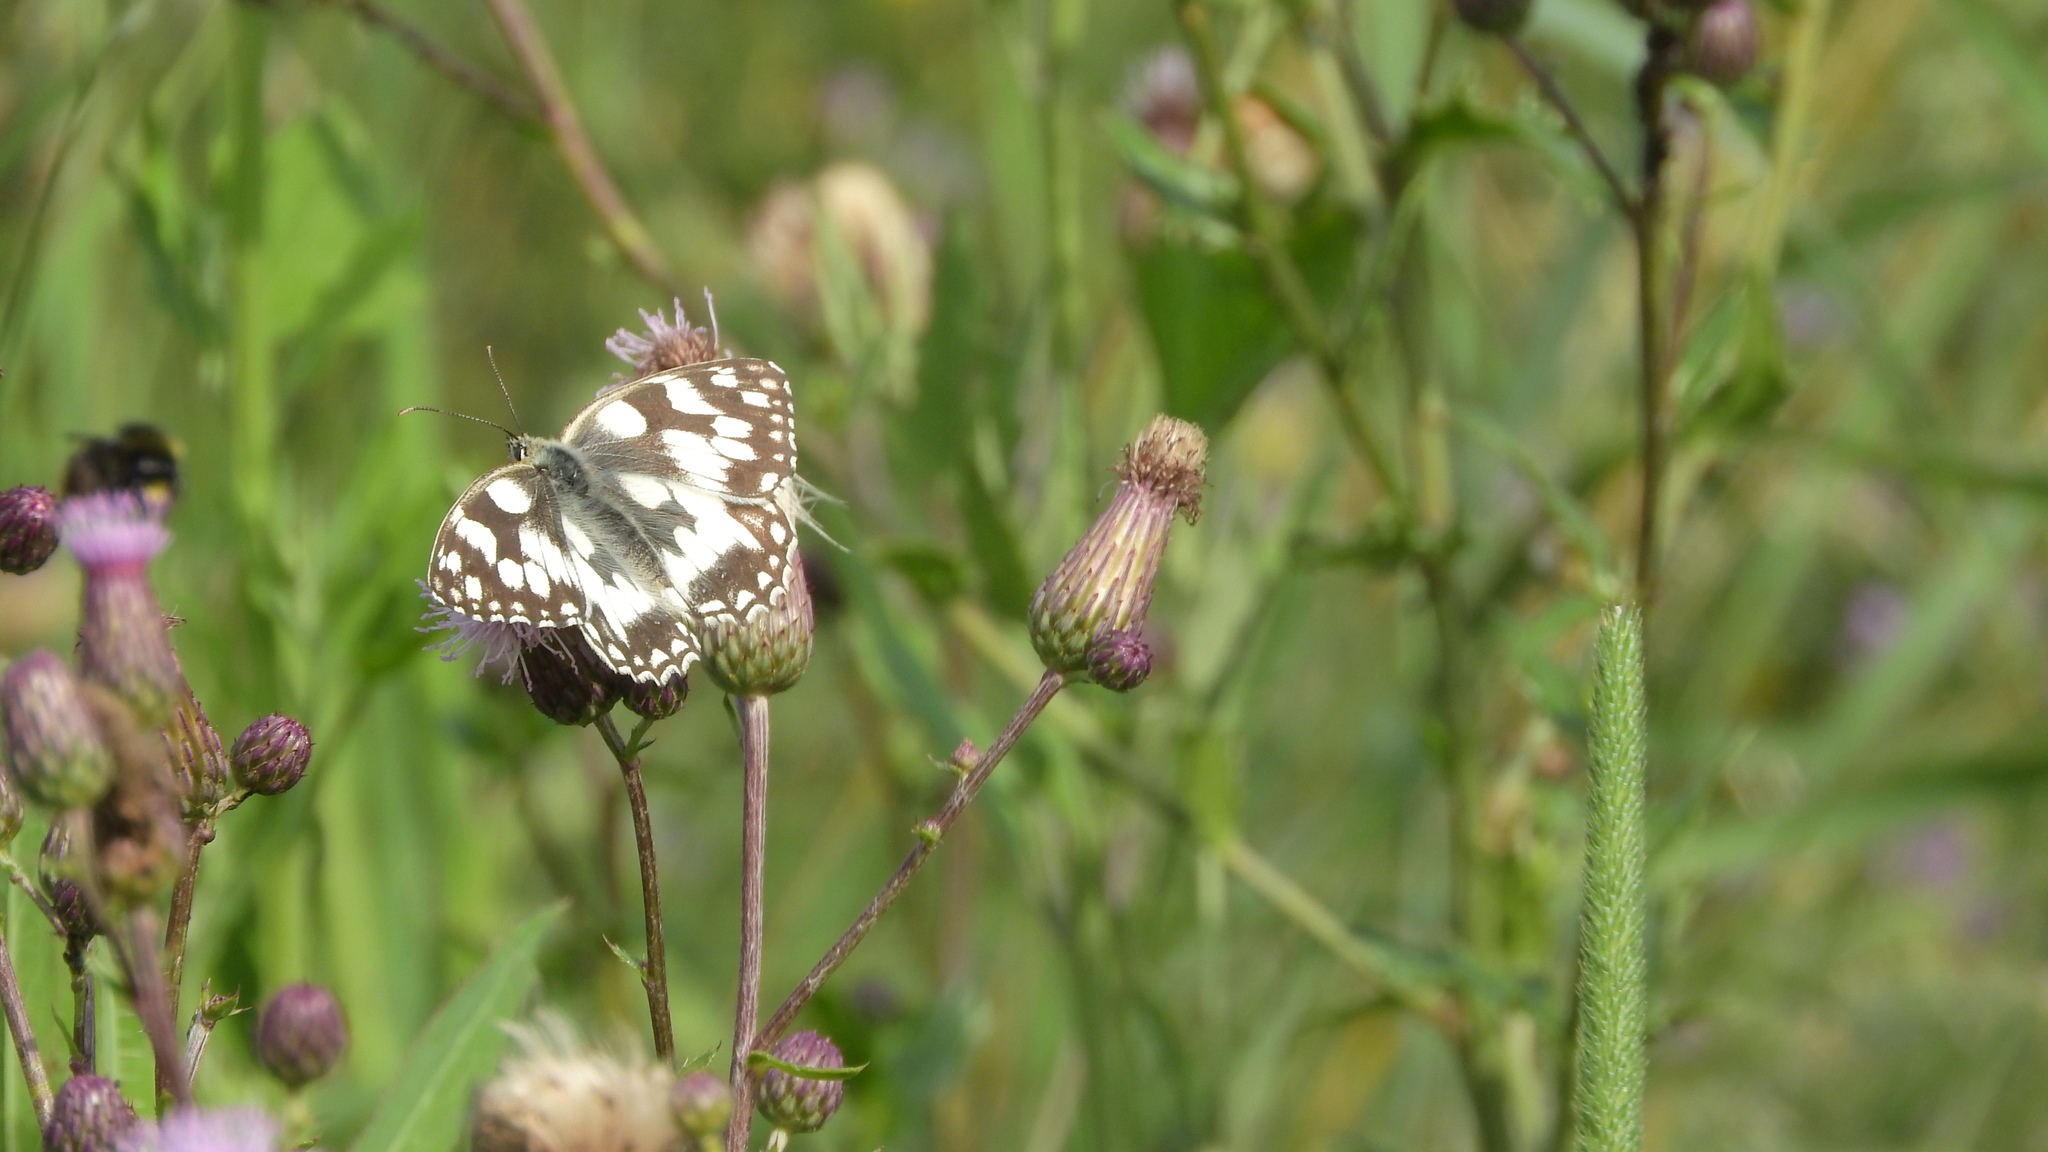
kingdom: Animalia
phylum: Arthropoda
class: Insecta
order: Lepidoptera
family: Nymphalidae
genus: Melanargia
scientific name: Melanargia galathea
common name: Marbled white
